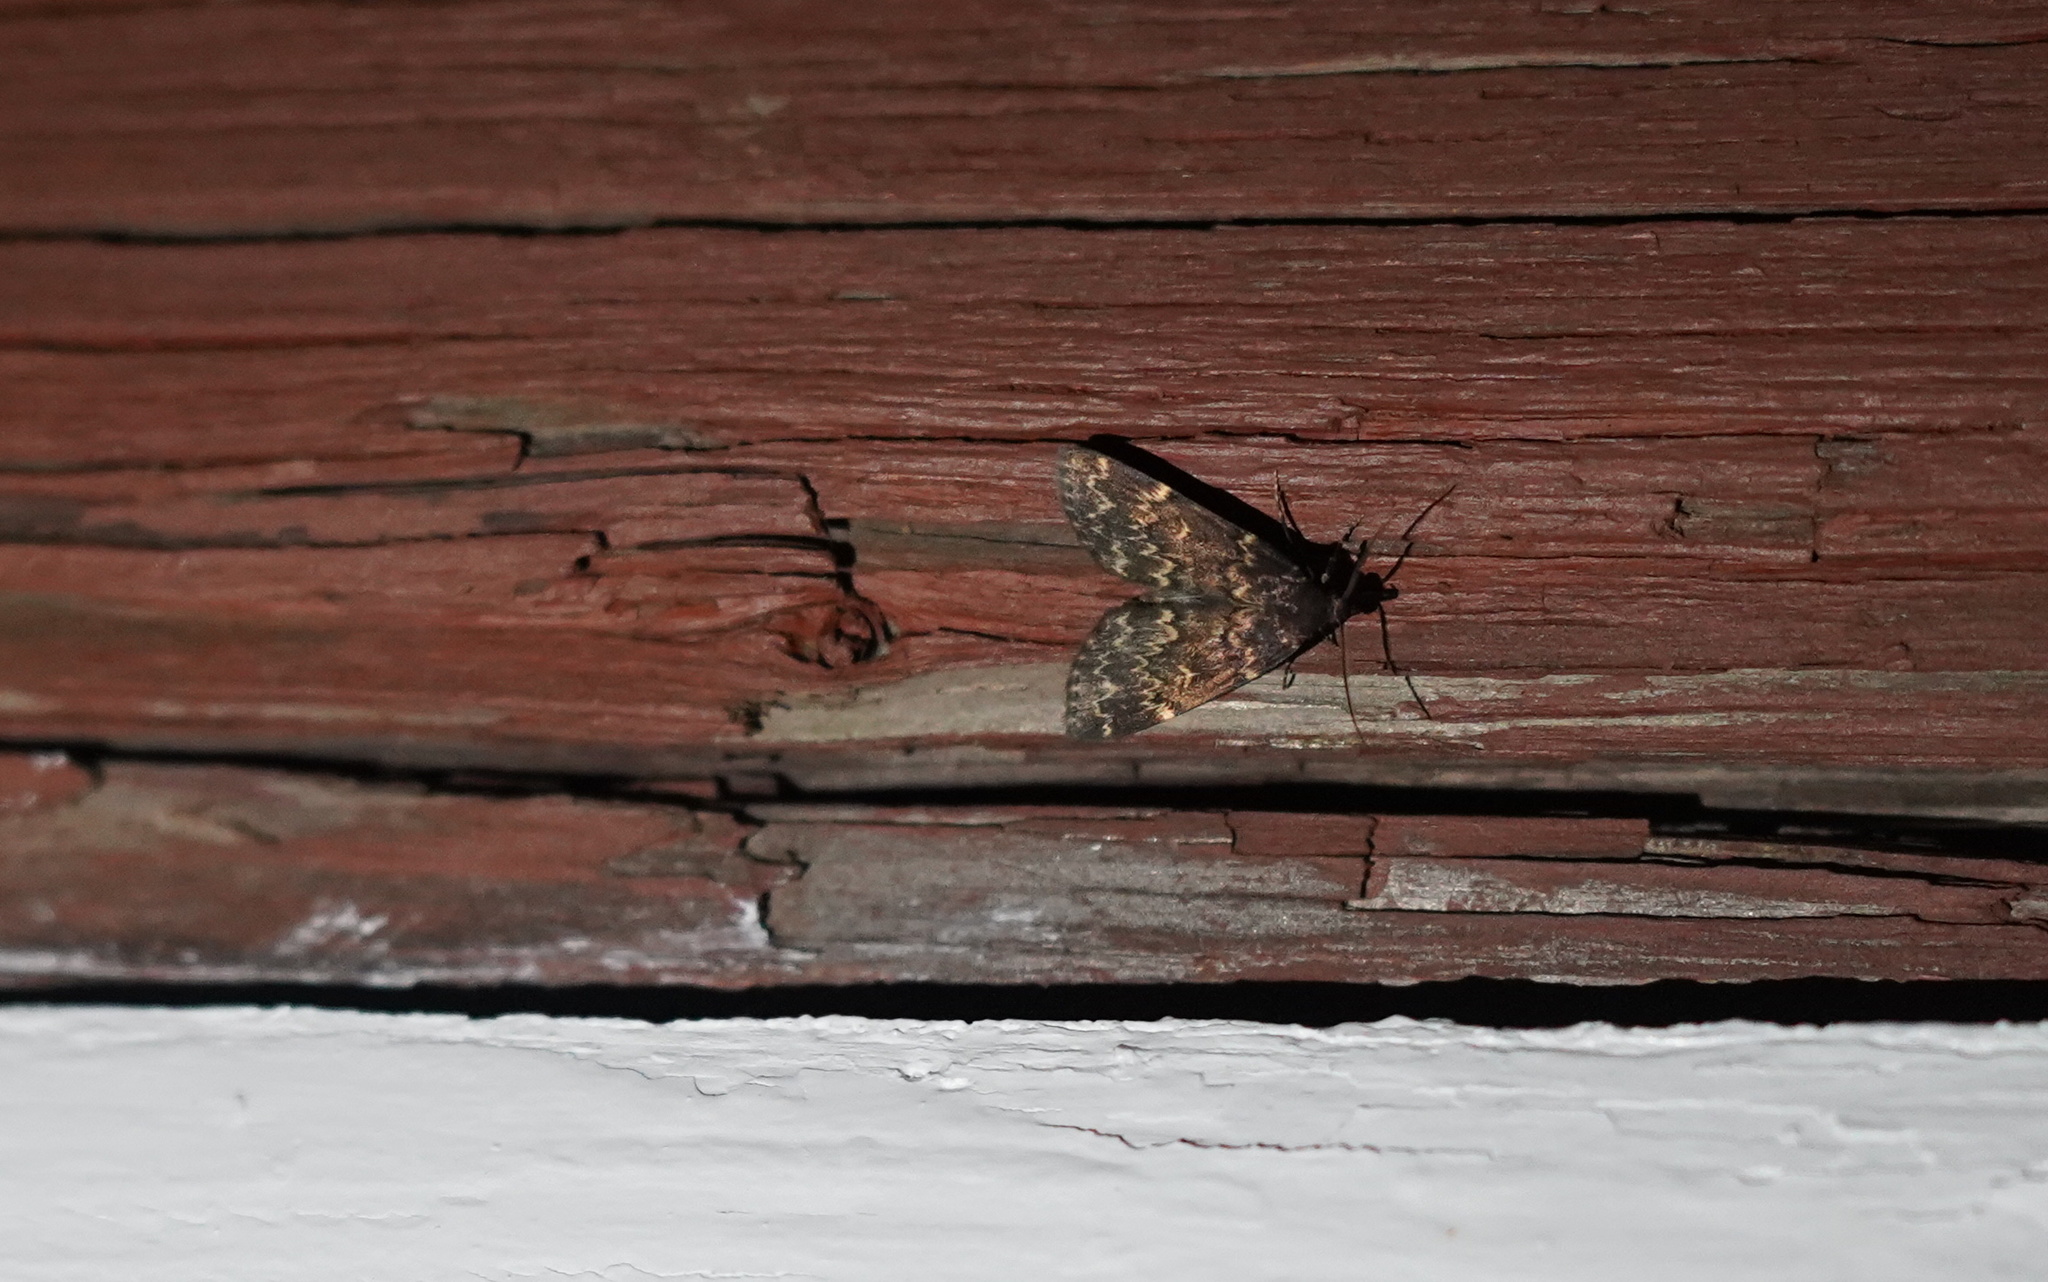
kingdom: Animalia
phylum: Arthropoda
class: Insecta
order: Lepidoptera
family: Erebidae
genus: Idia
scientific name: Idia lubricalis
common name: Twin-striped tabby
